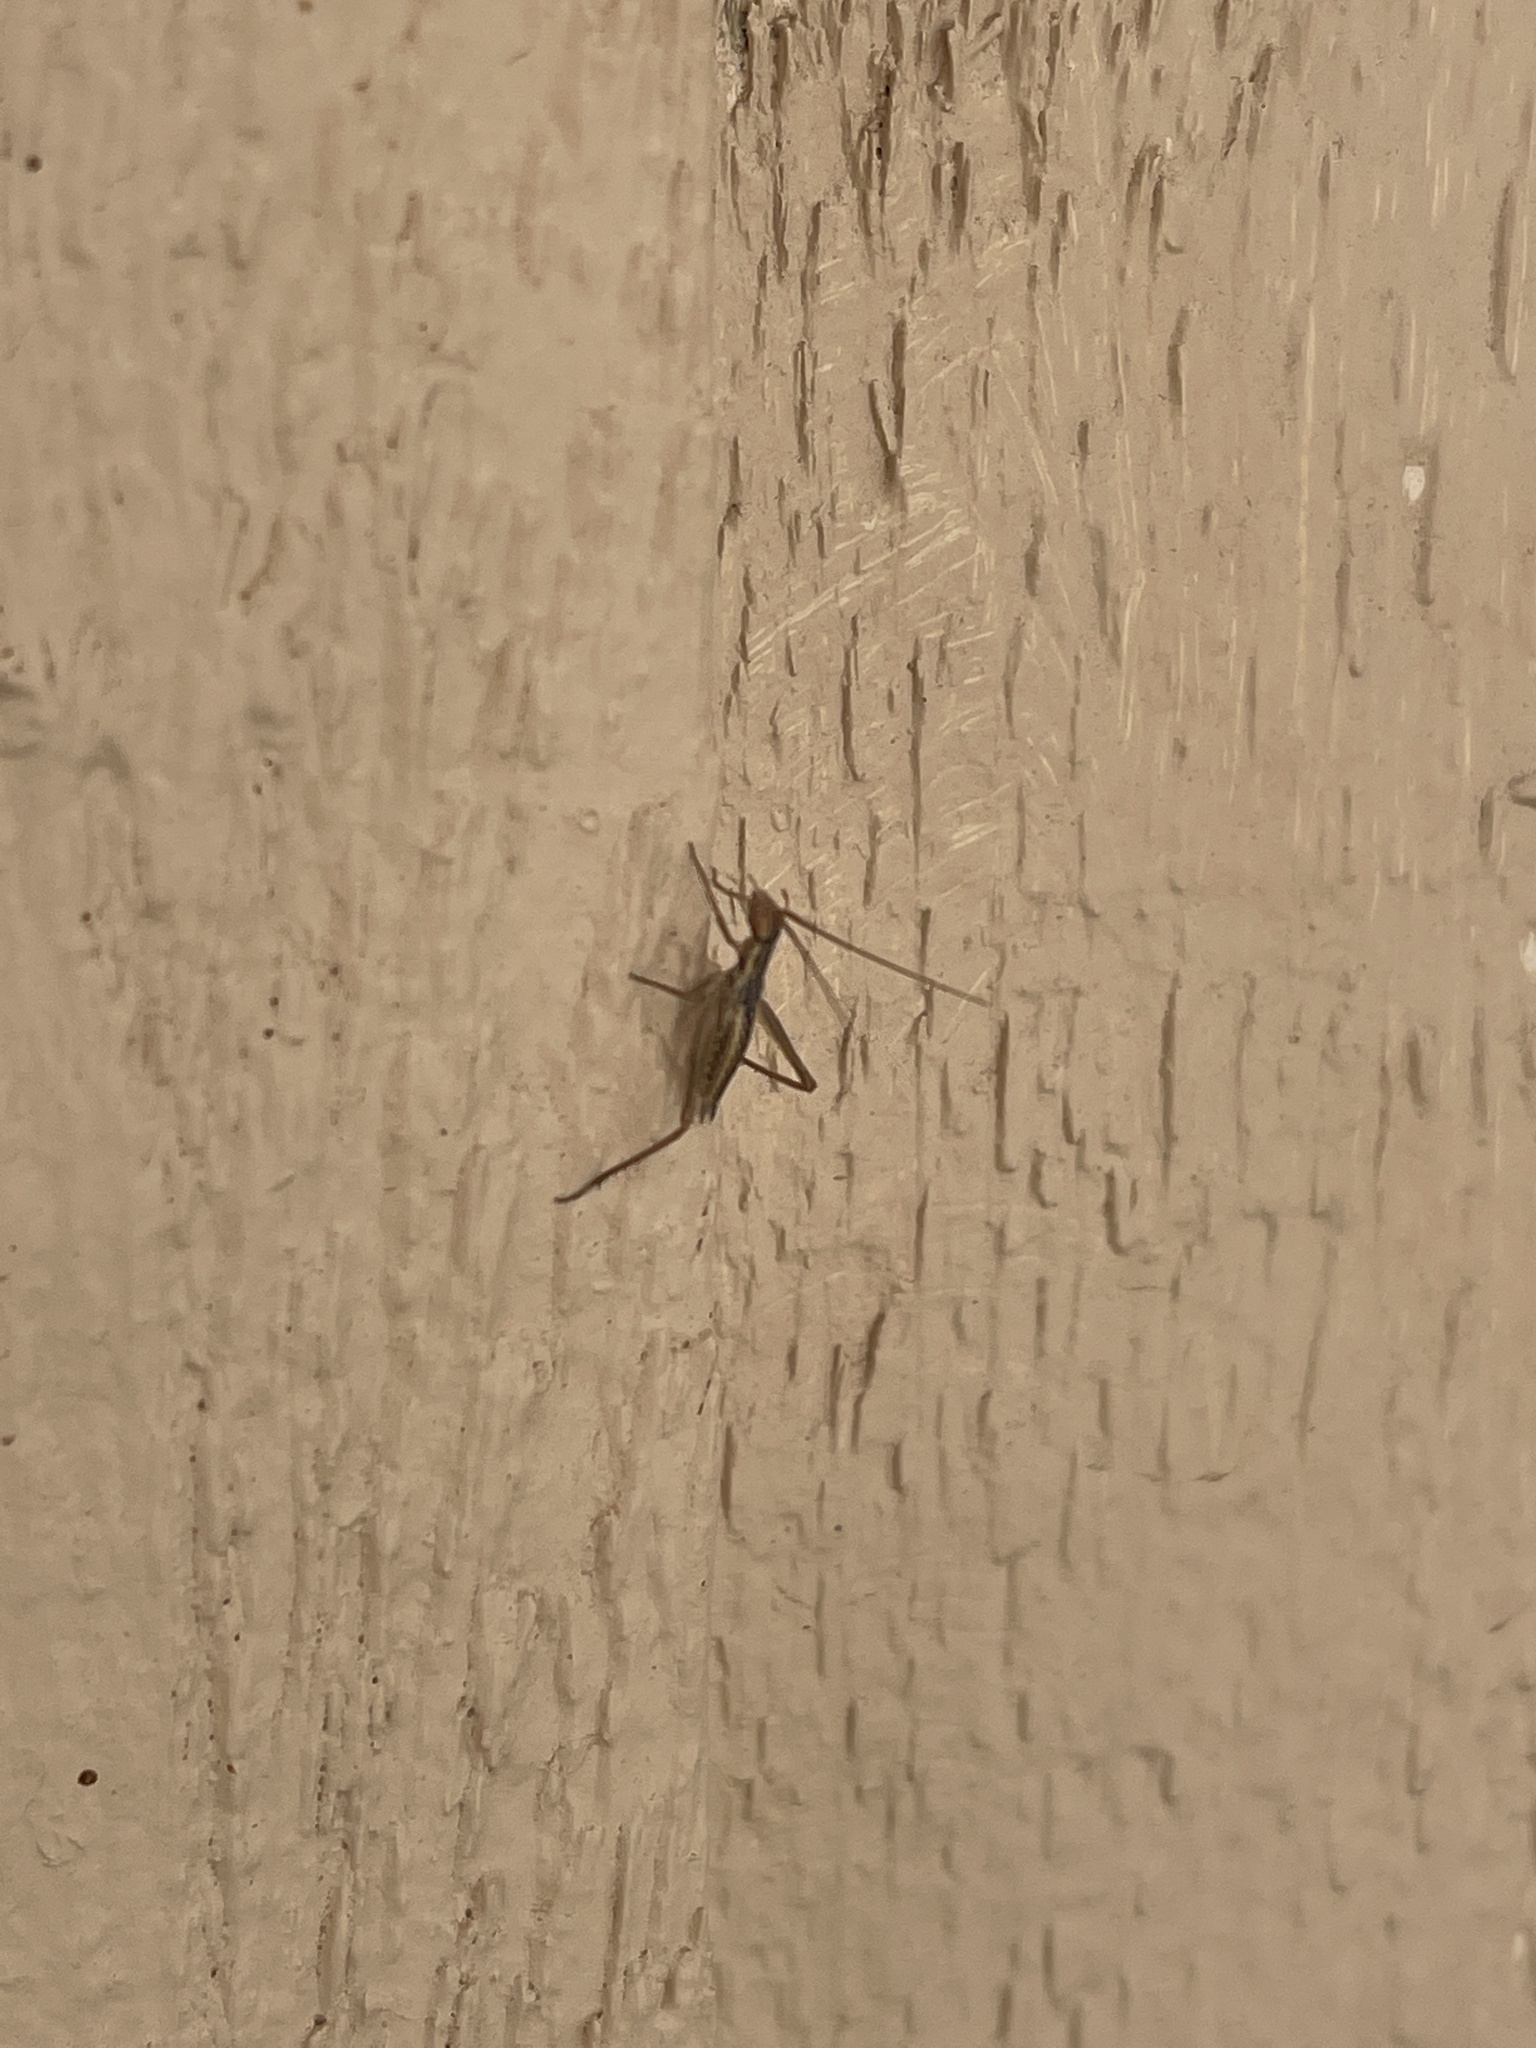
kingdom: Animalia
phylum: Arthropoda
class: Insecta
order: Orthoptera
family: Gryllidae
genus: Oecanthus
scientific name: Oecanthus californicus
